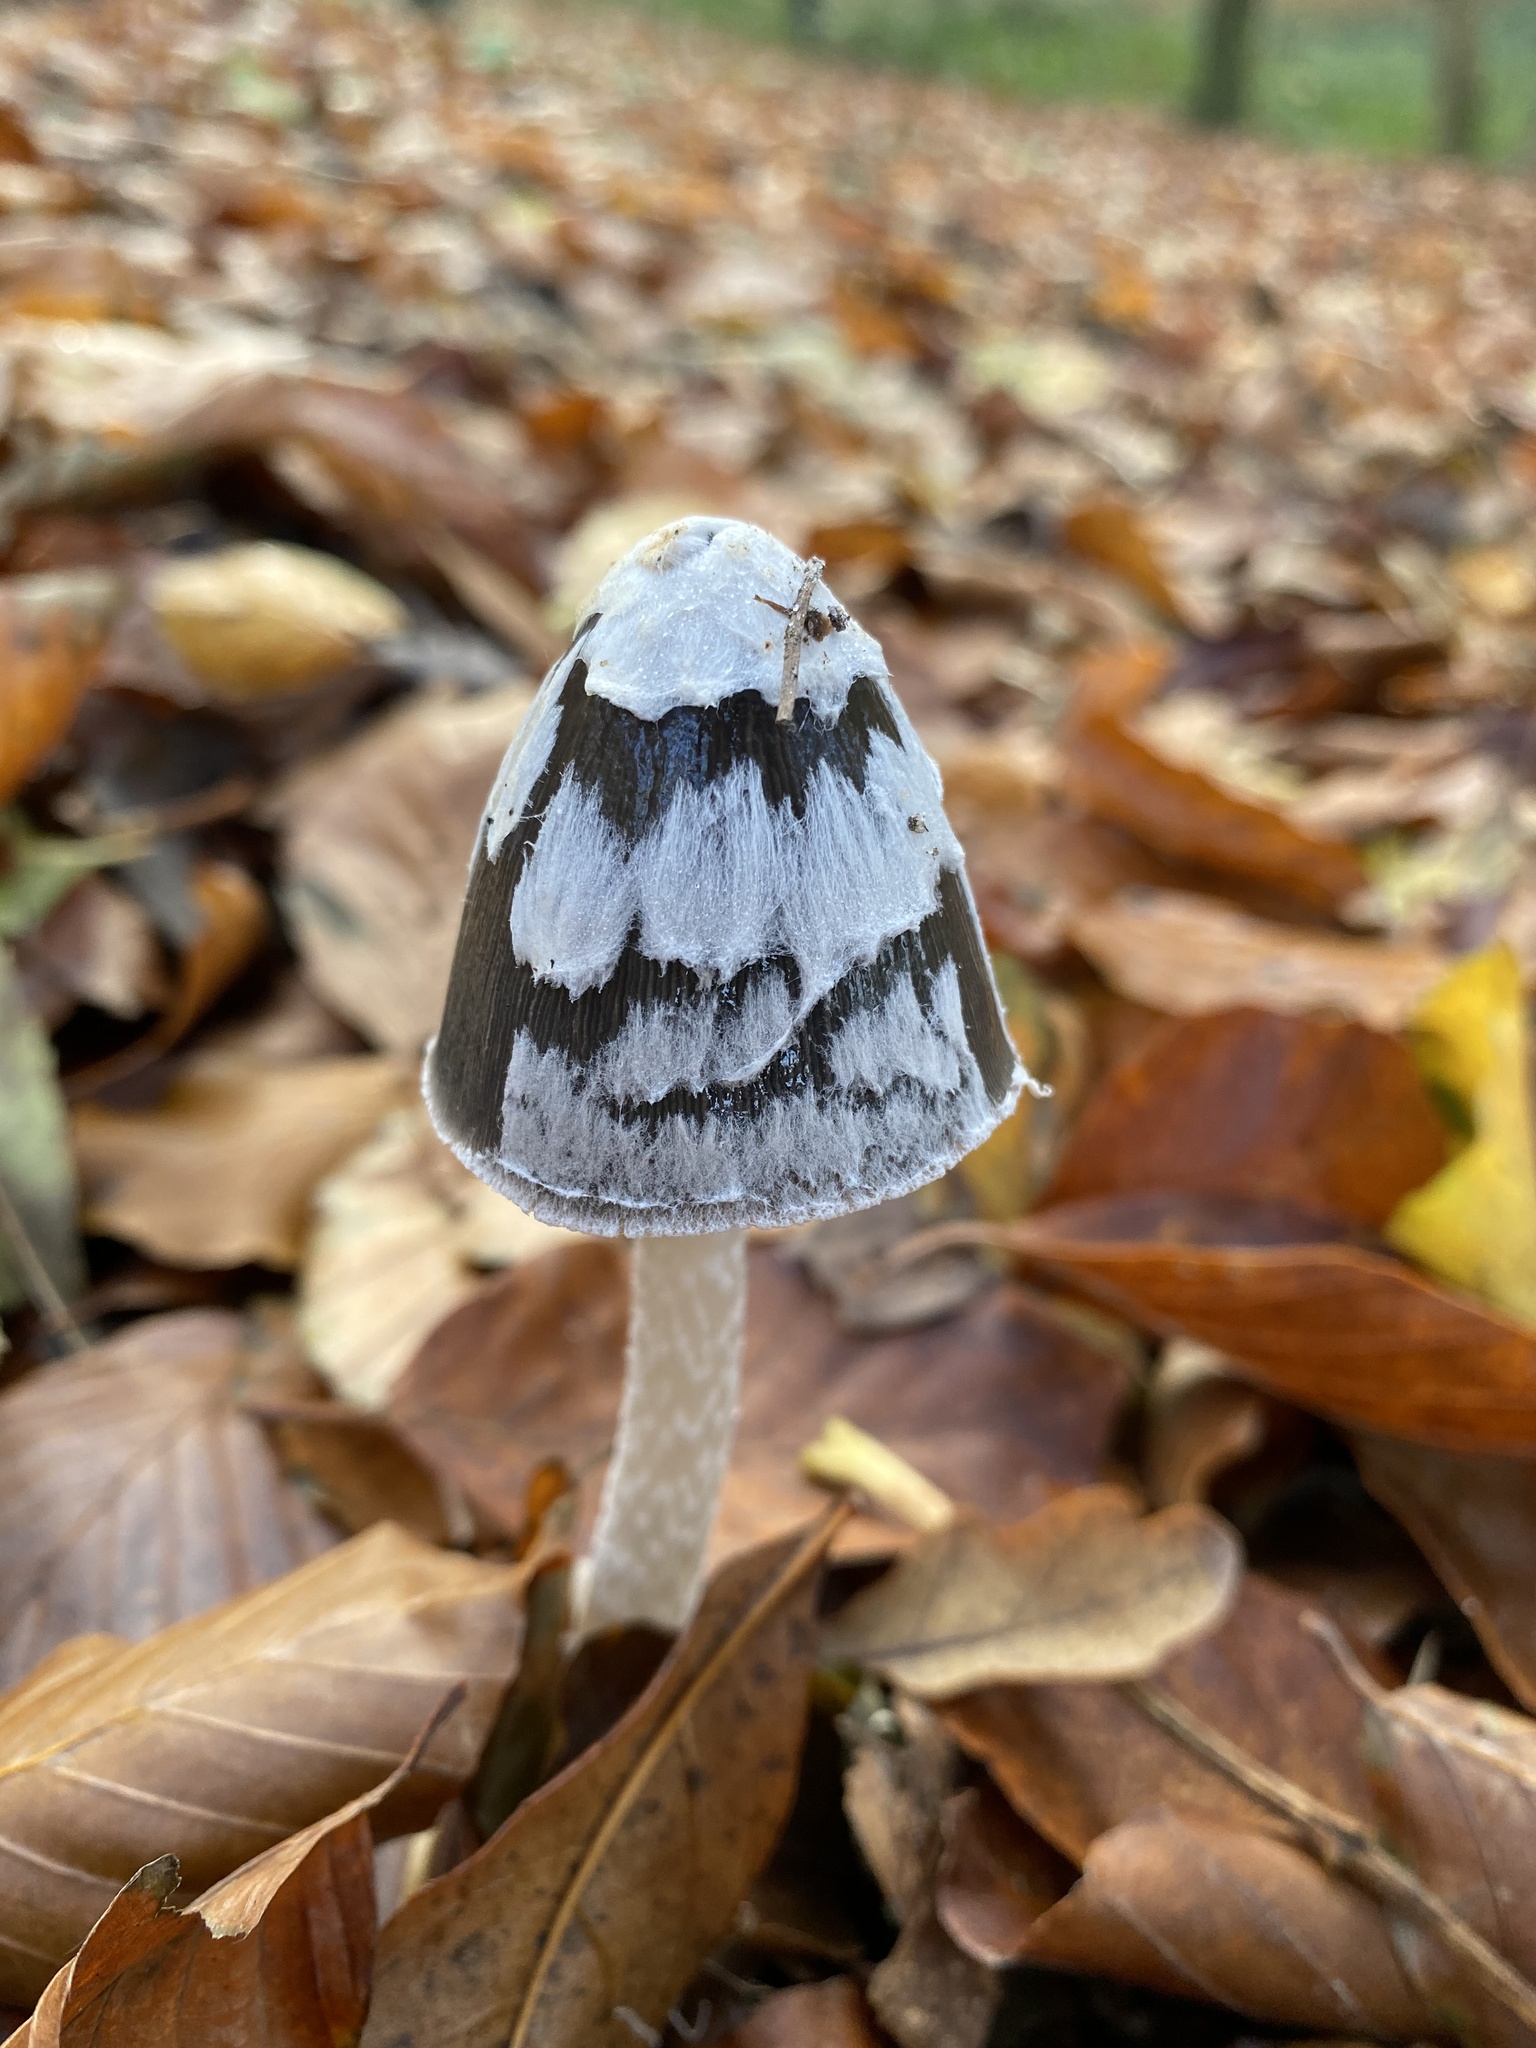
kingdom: Fungi
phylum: Basidiomycota
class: Agaricomycetes
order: Agaricales
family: Psathyrellaceae
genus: Coprinopsis
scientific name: Coprinopsis picacea
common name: Magpie inkcap
